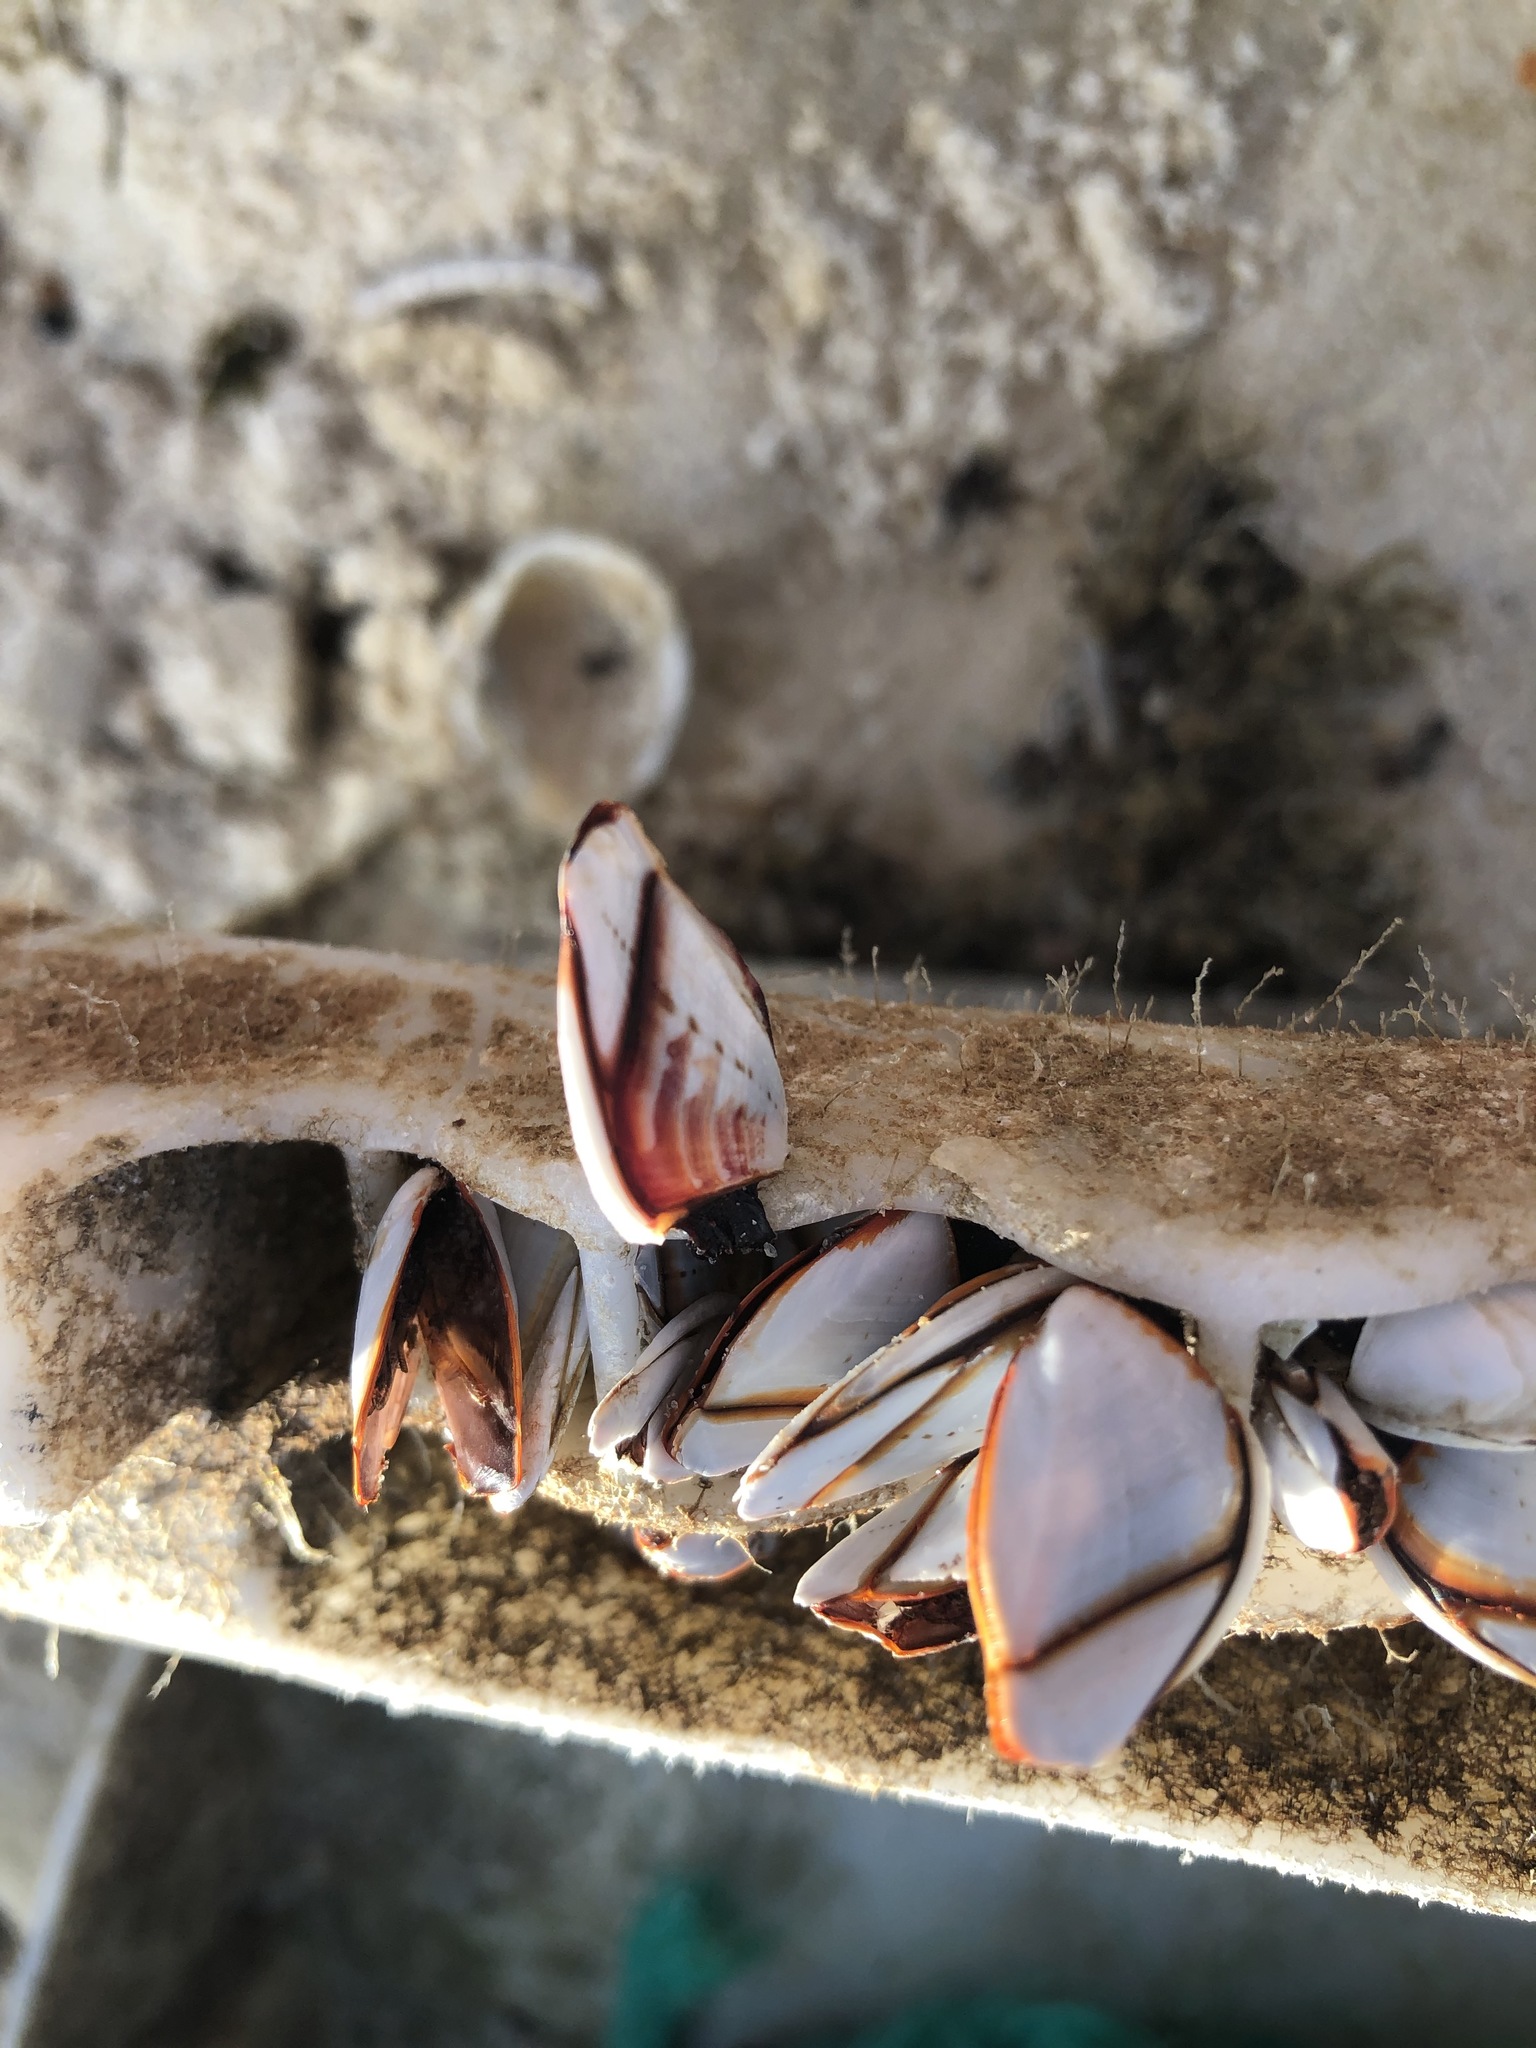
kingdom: Animalia
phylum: Arthropoda
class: Maxillopoda
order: Pedunculata
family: Lepadidae
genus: Lepas
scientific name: Lepas indica
